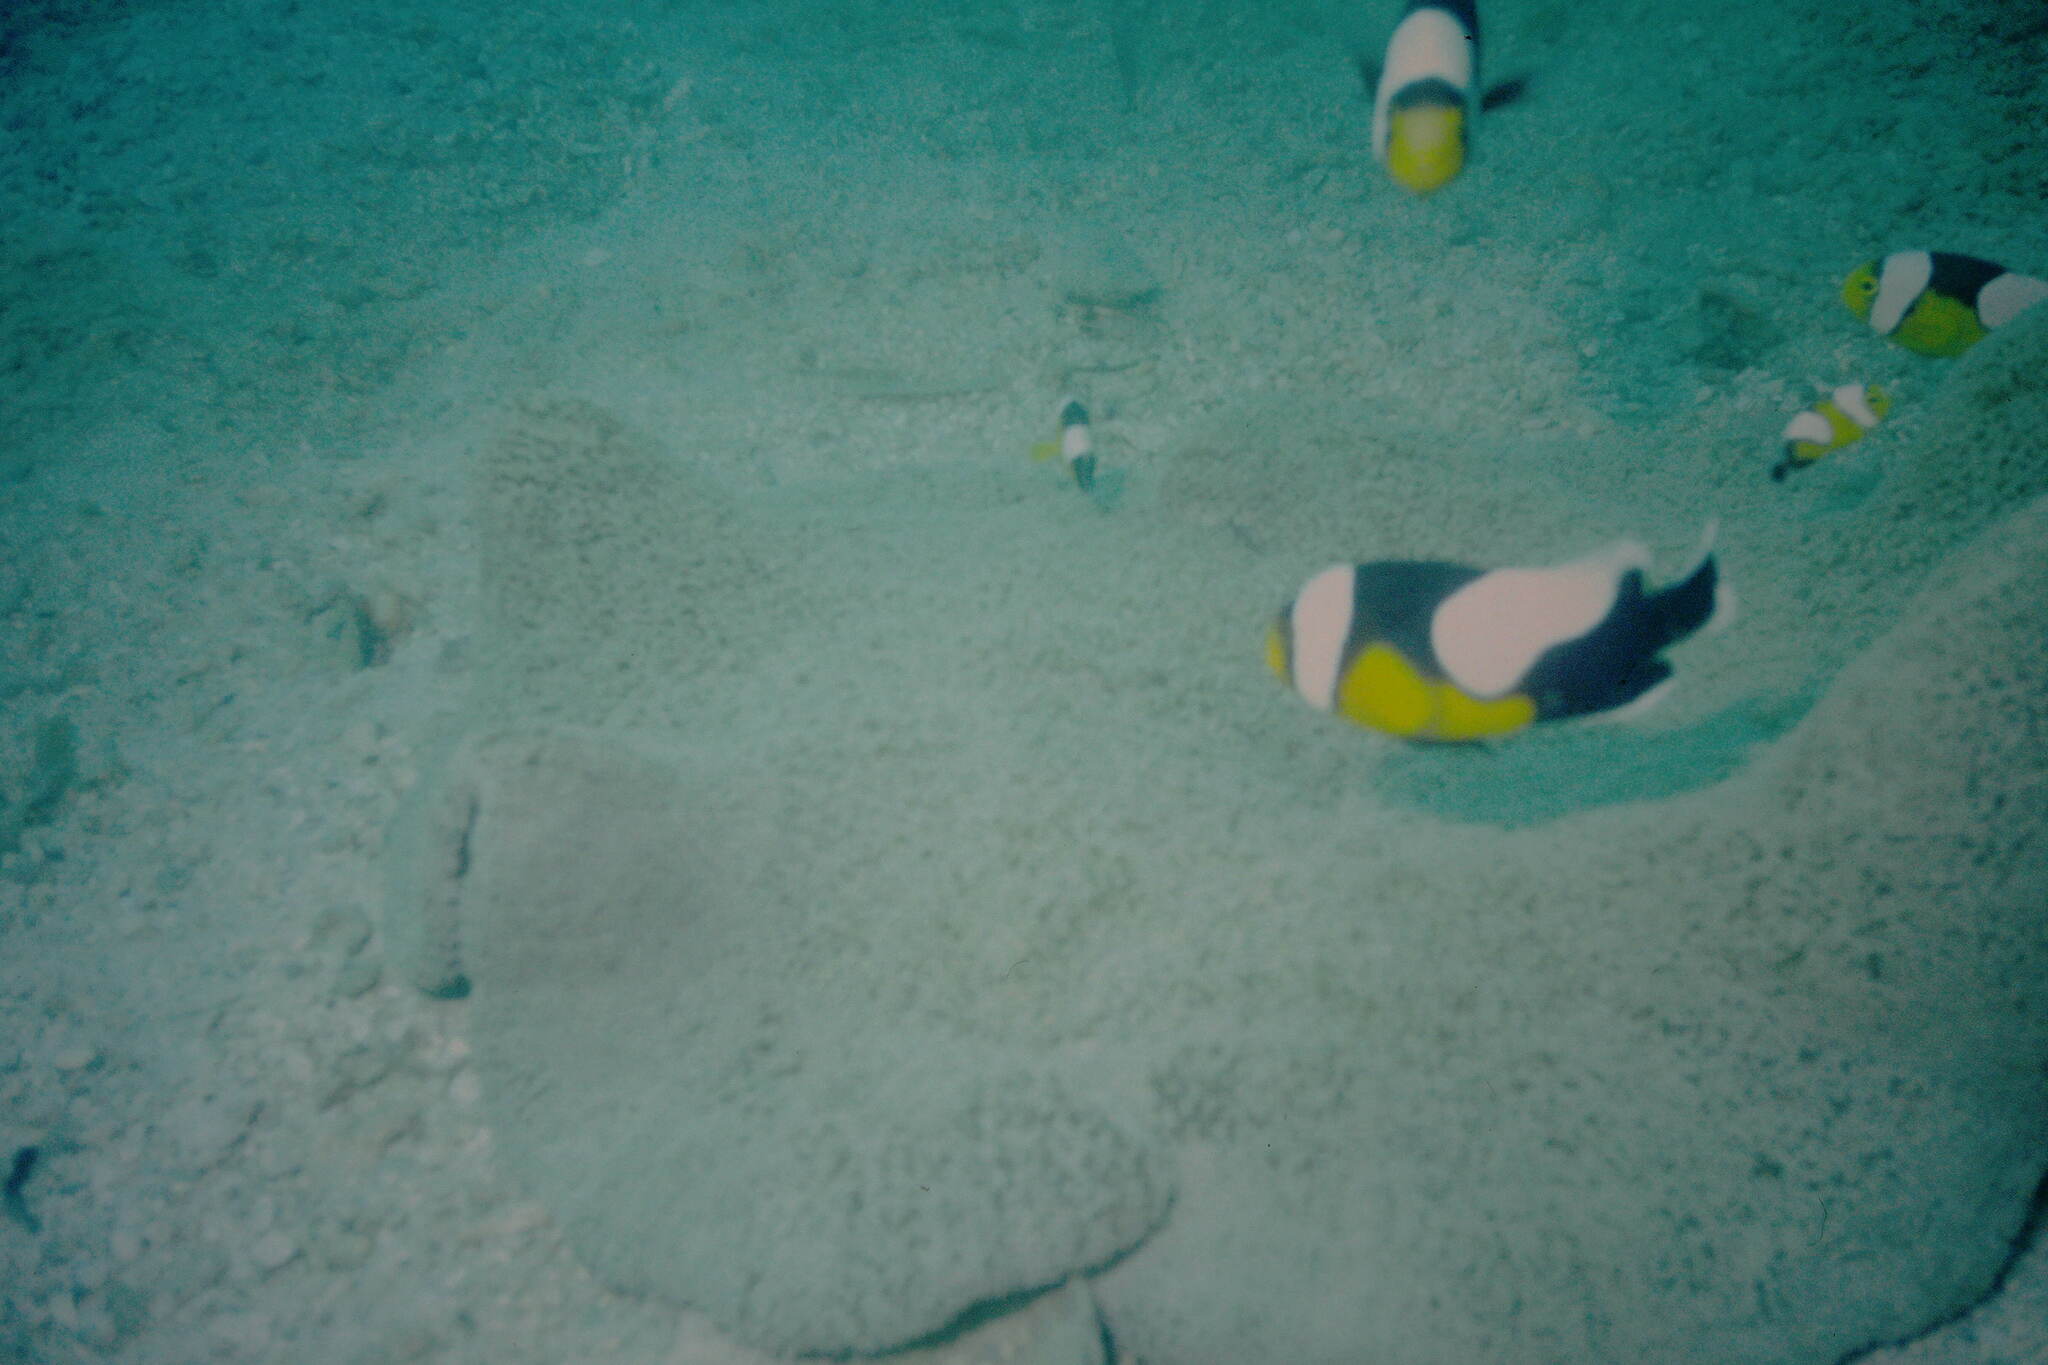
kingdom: Animalia
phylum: Chordata
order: Perciformes
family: Pomacentridae
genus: Amphiprion
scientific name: Amphiprion polymnus
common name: Saddleback anemonefish
